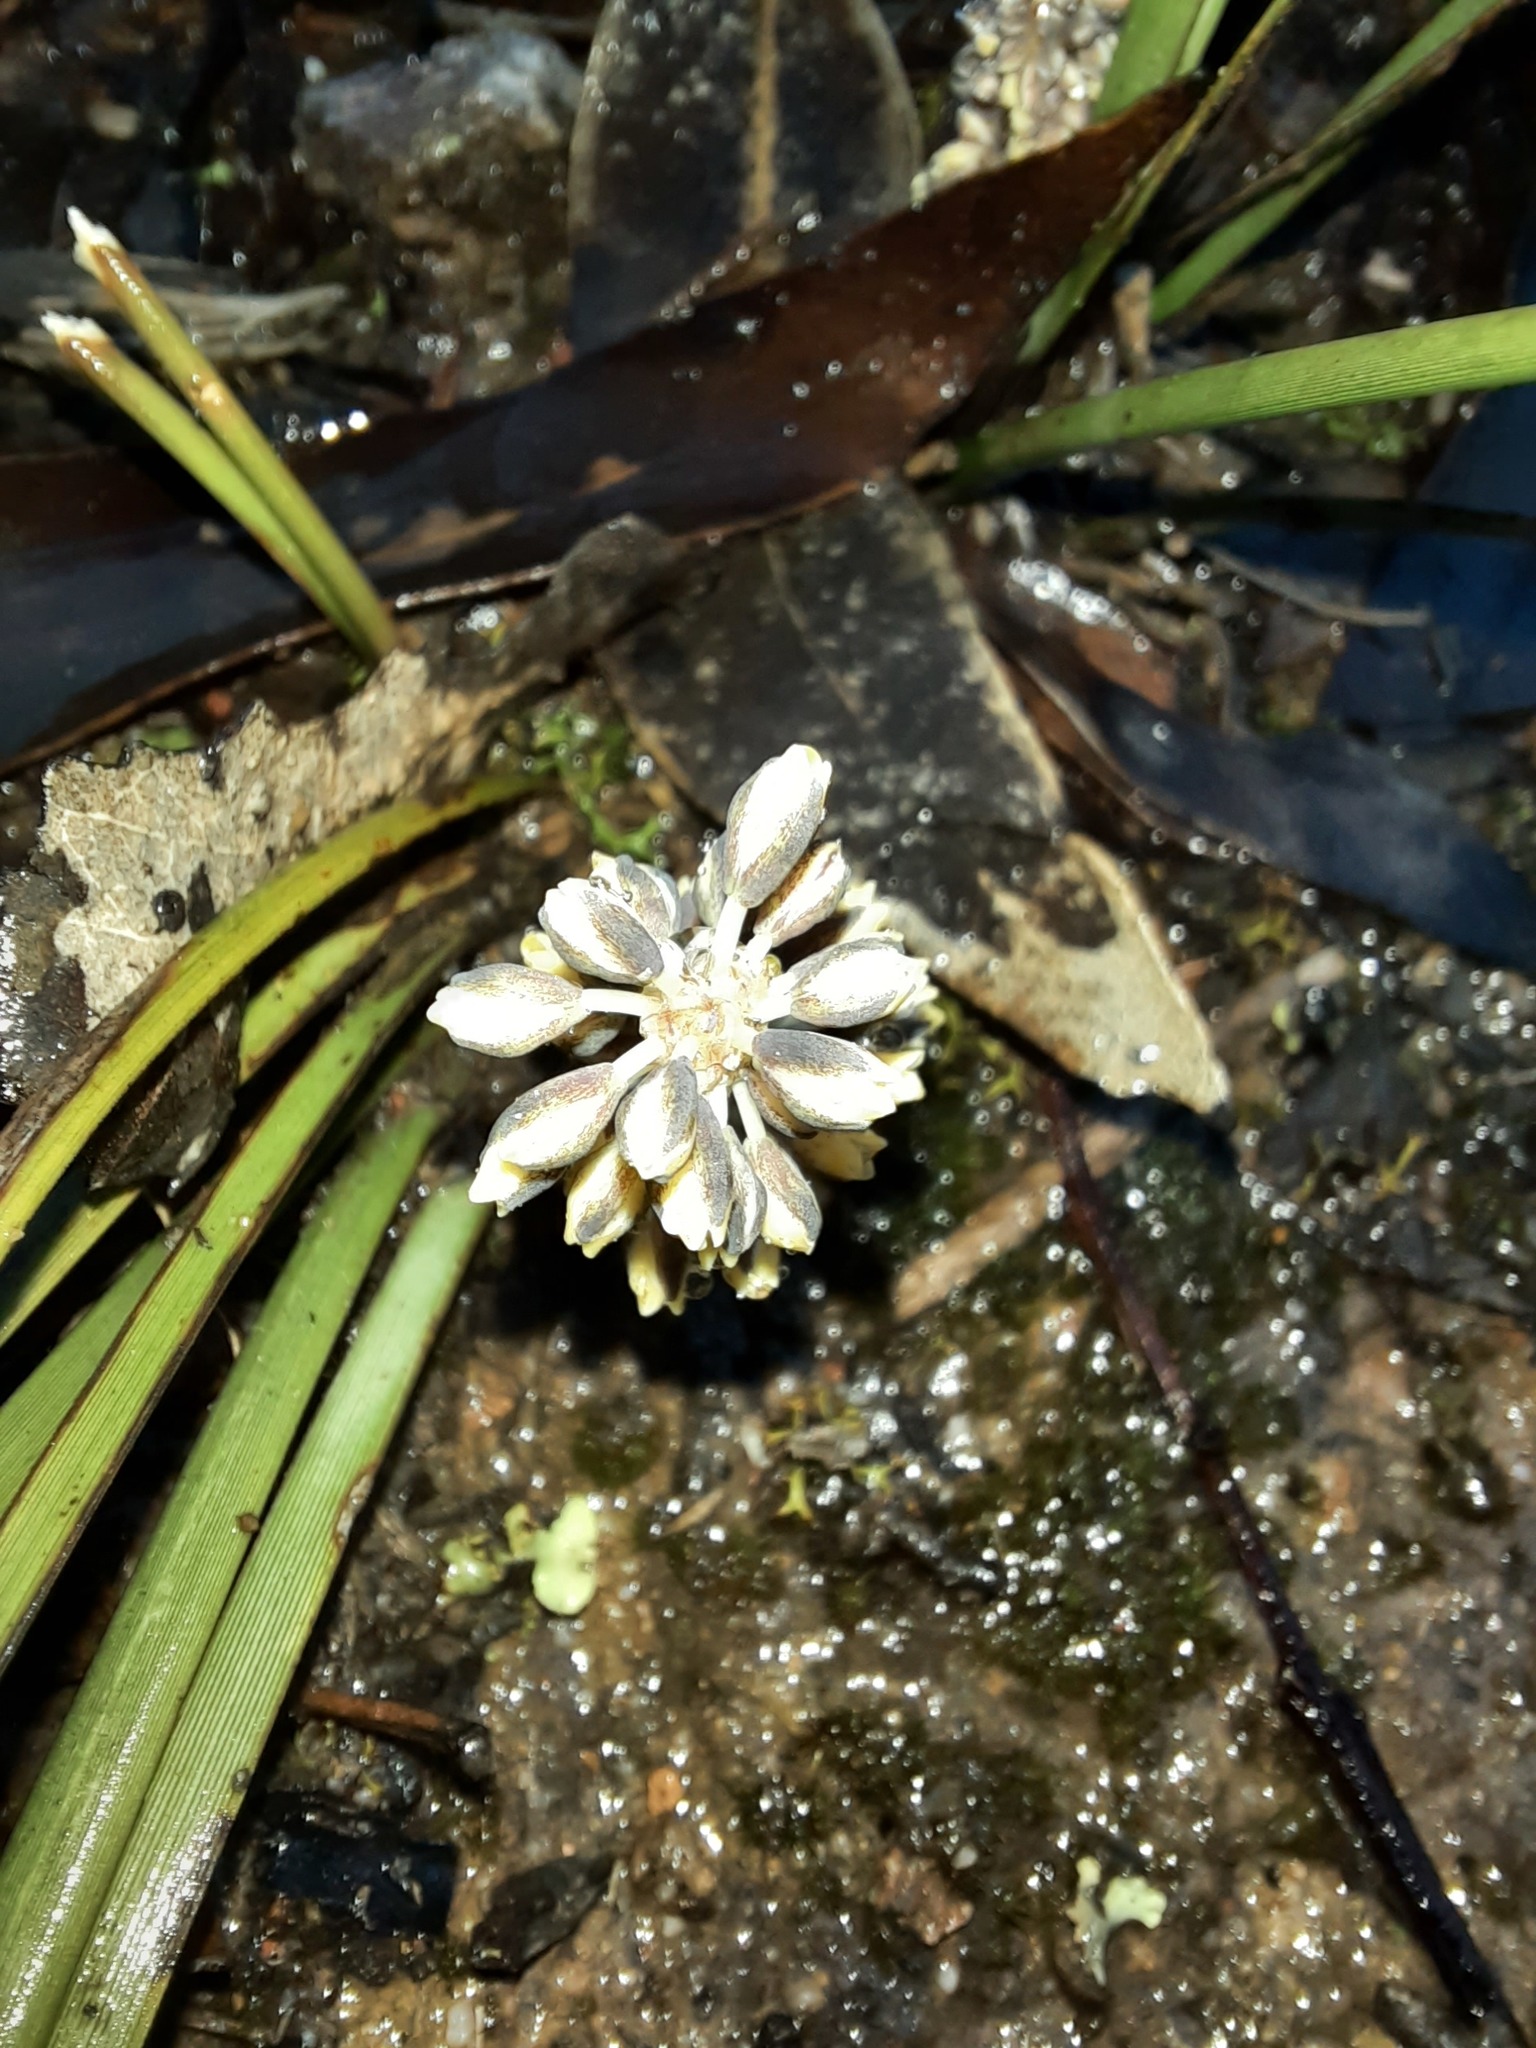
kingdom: Plantae
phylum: Tracheophyta
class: Liliopsida
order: Asparagales
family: Asparagaceae
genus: Lomandra
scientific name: Lomandra multiflora
